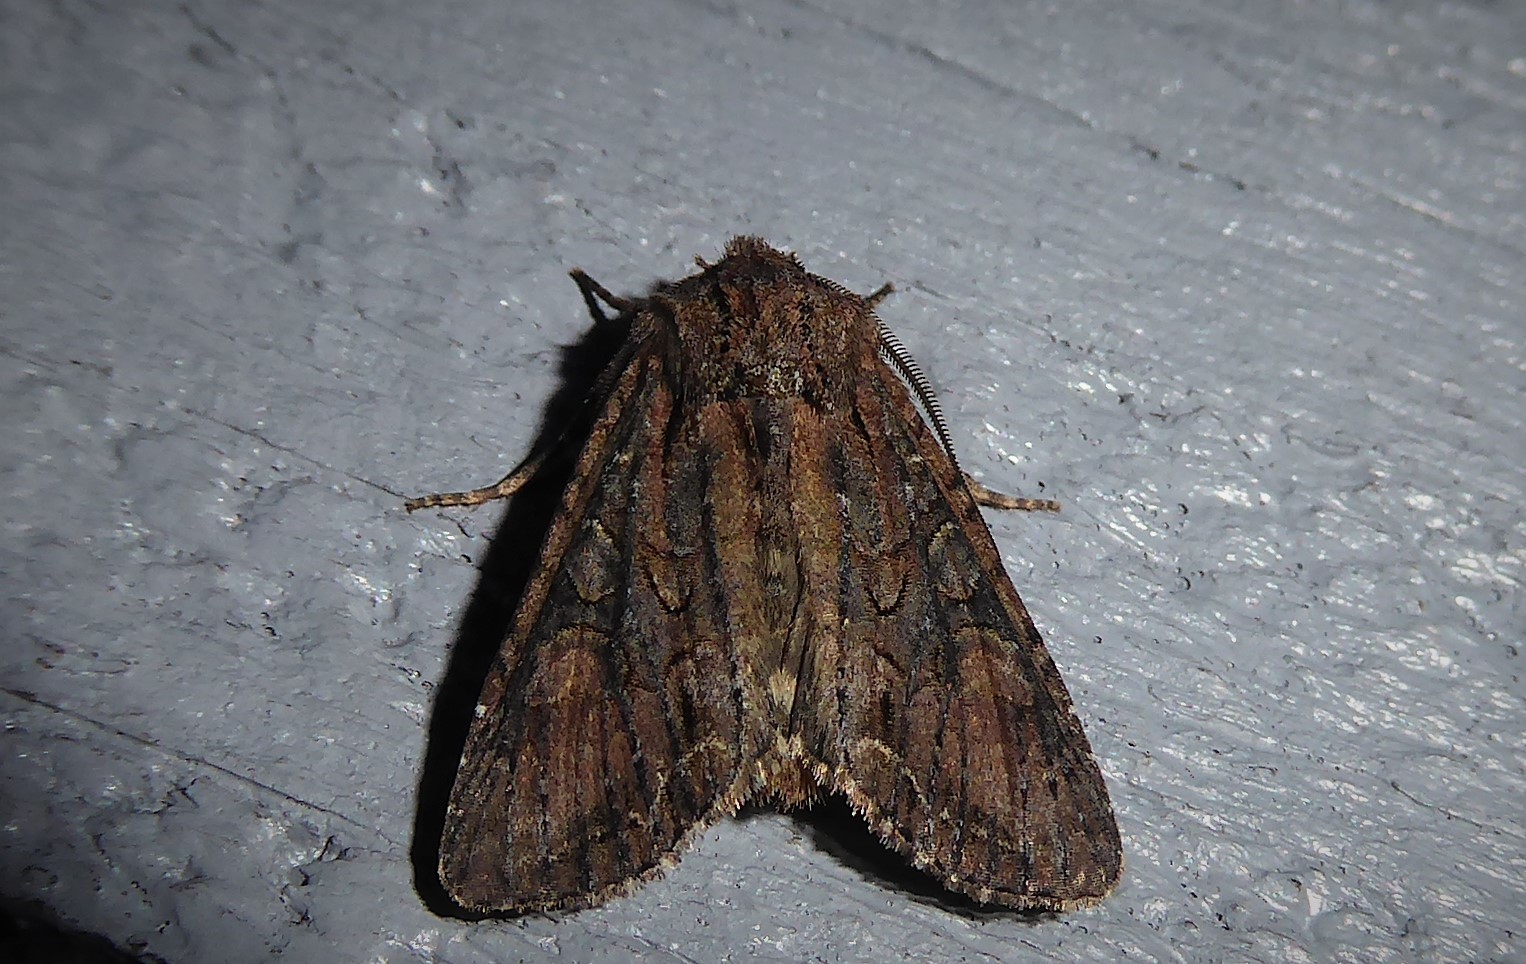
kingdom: Animalia
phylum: Arthropoda
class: Insecta
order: Lepidoptera
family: Noctuidae
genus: Ichneutica
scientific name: Ichneutica mutans
